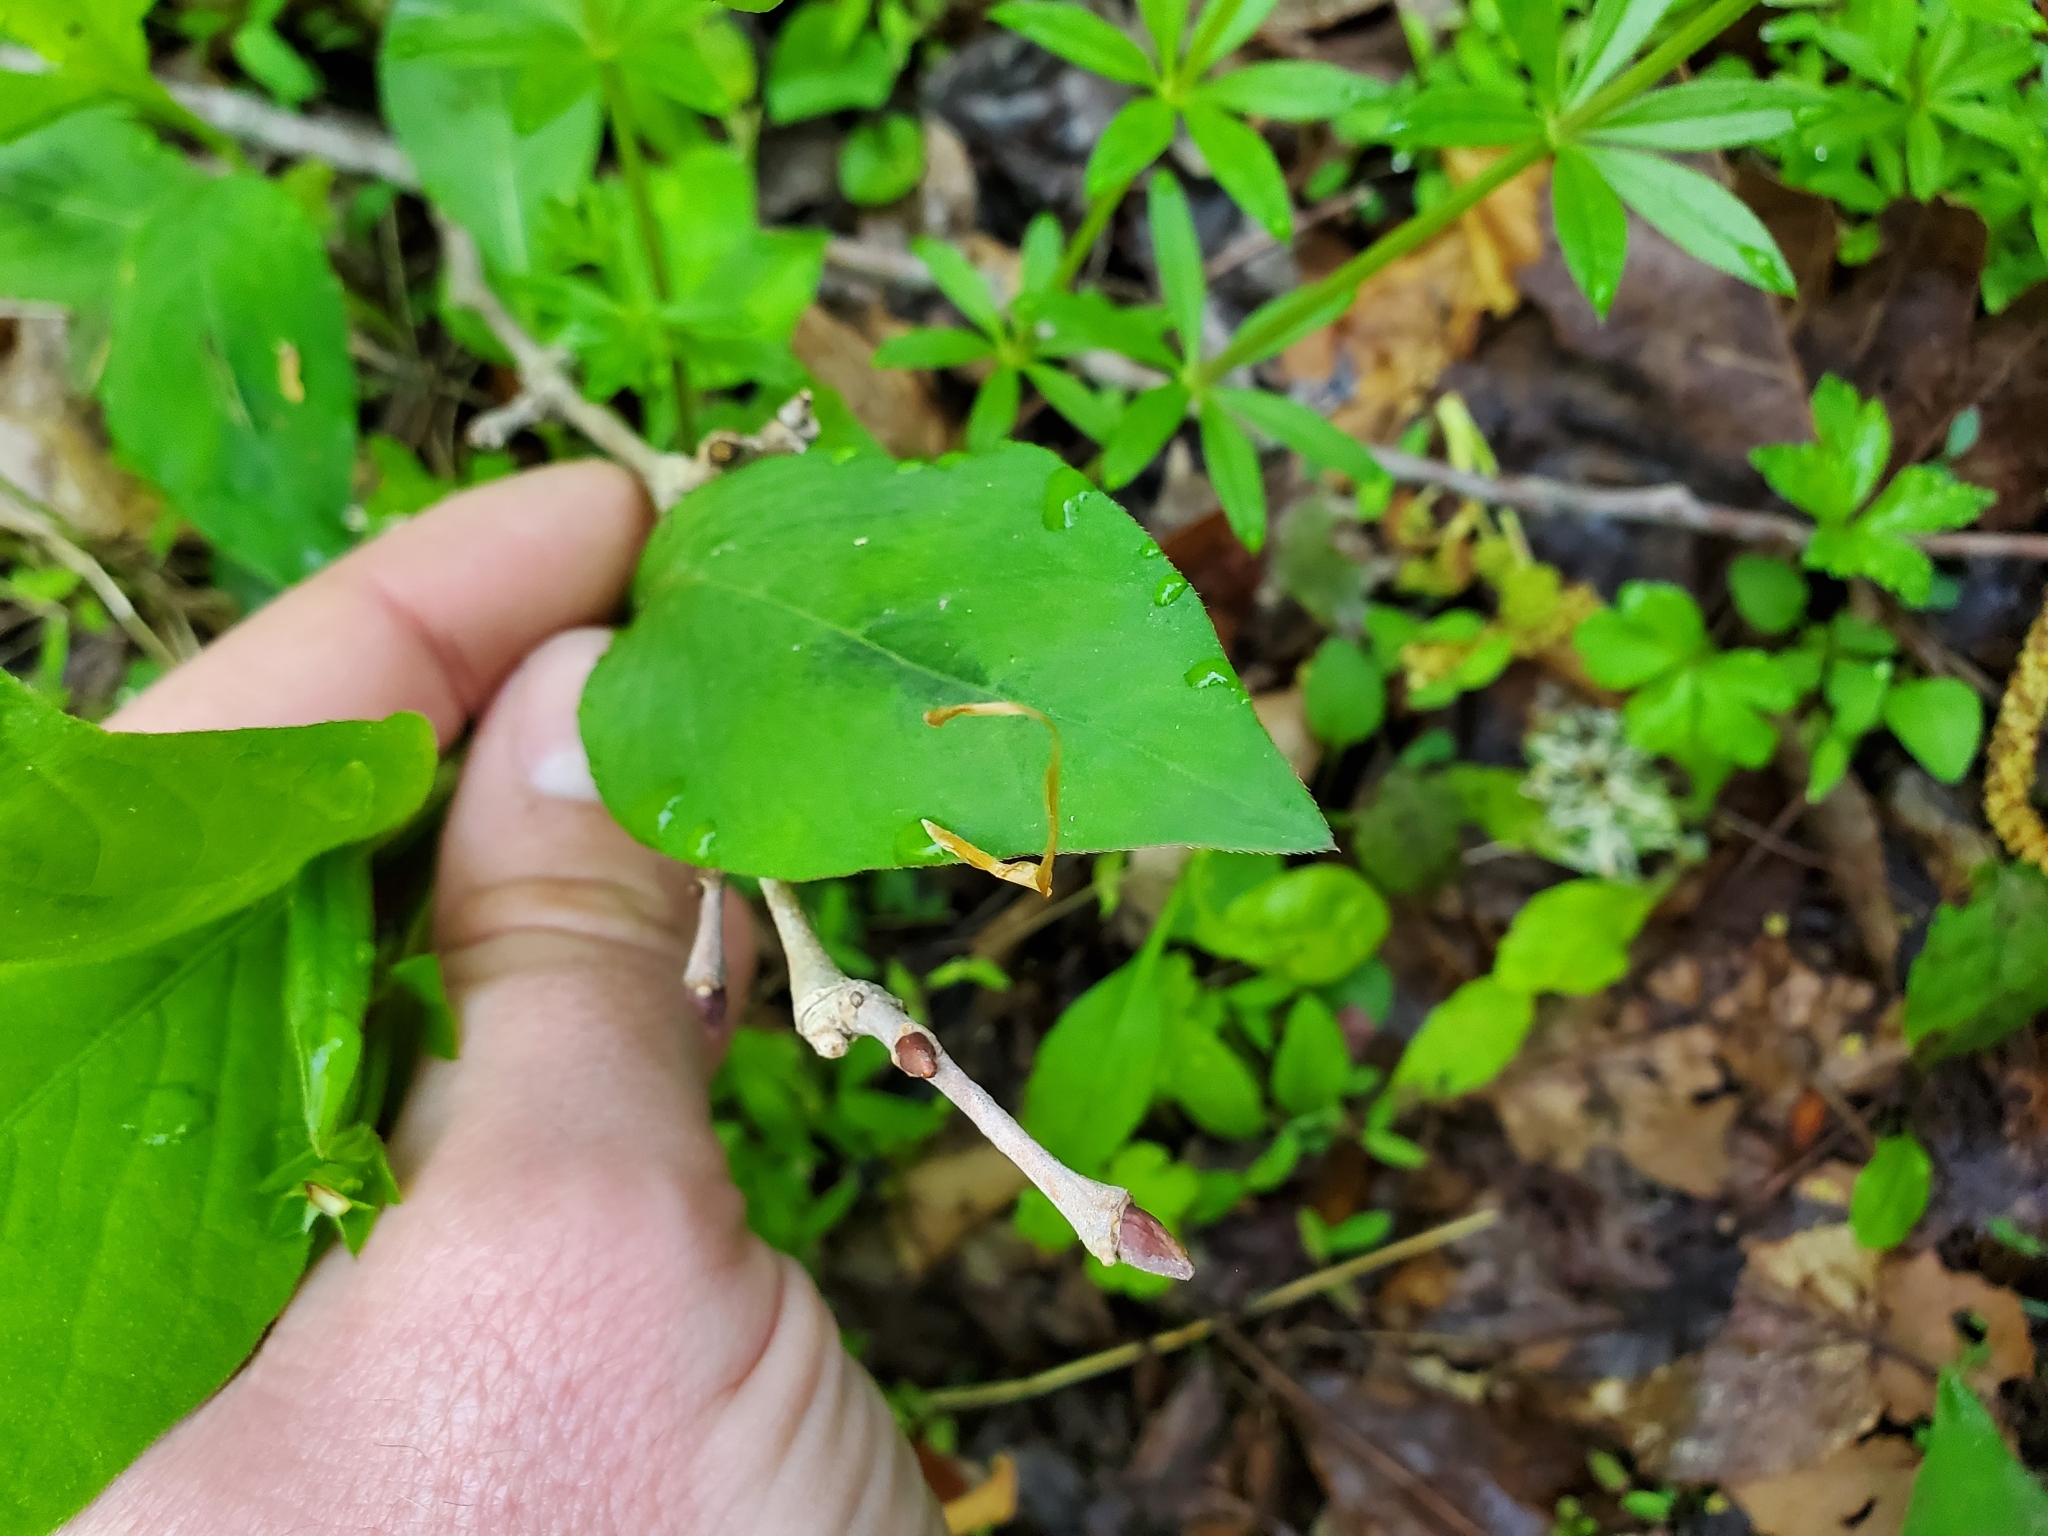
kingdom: Plantae
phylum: Tracheophyta
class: Magnoliopsida
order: Caryophyllales
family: Polygonaceae
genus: Persicaria
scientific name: Persicaria virginiana
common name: Jumpseed
